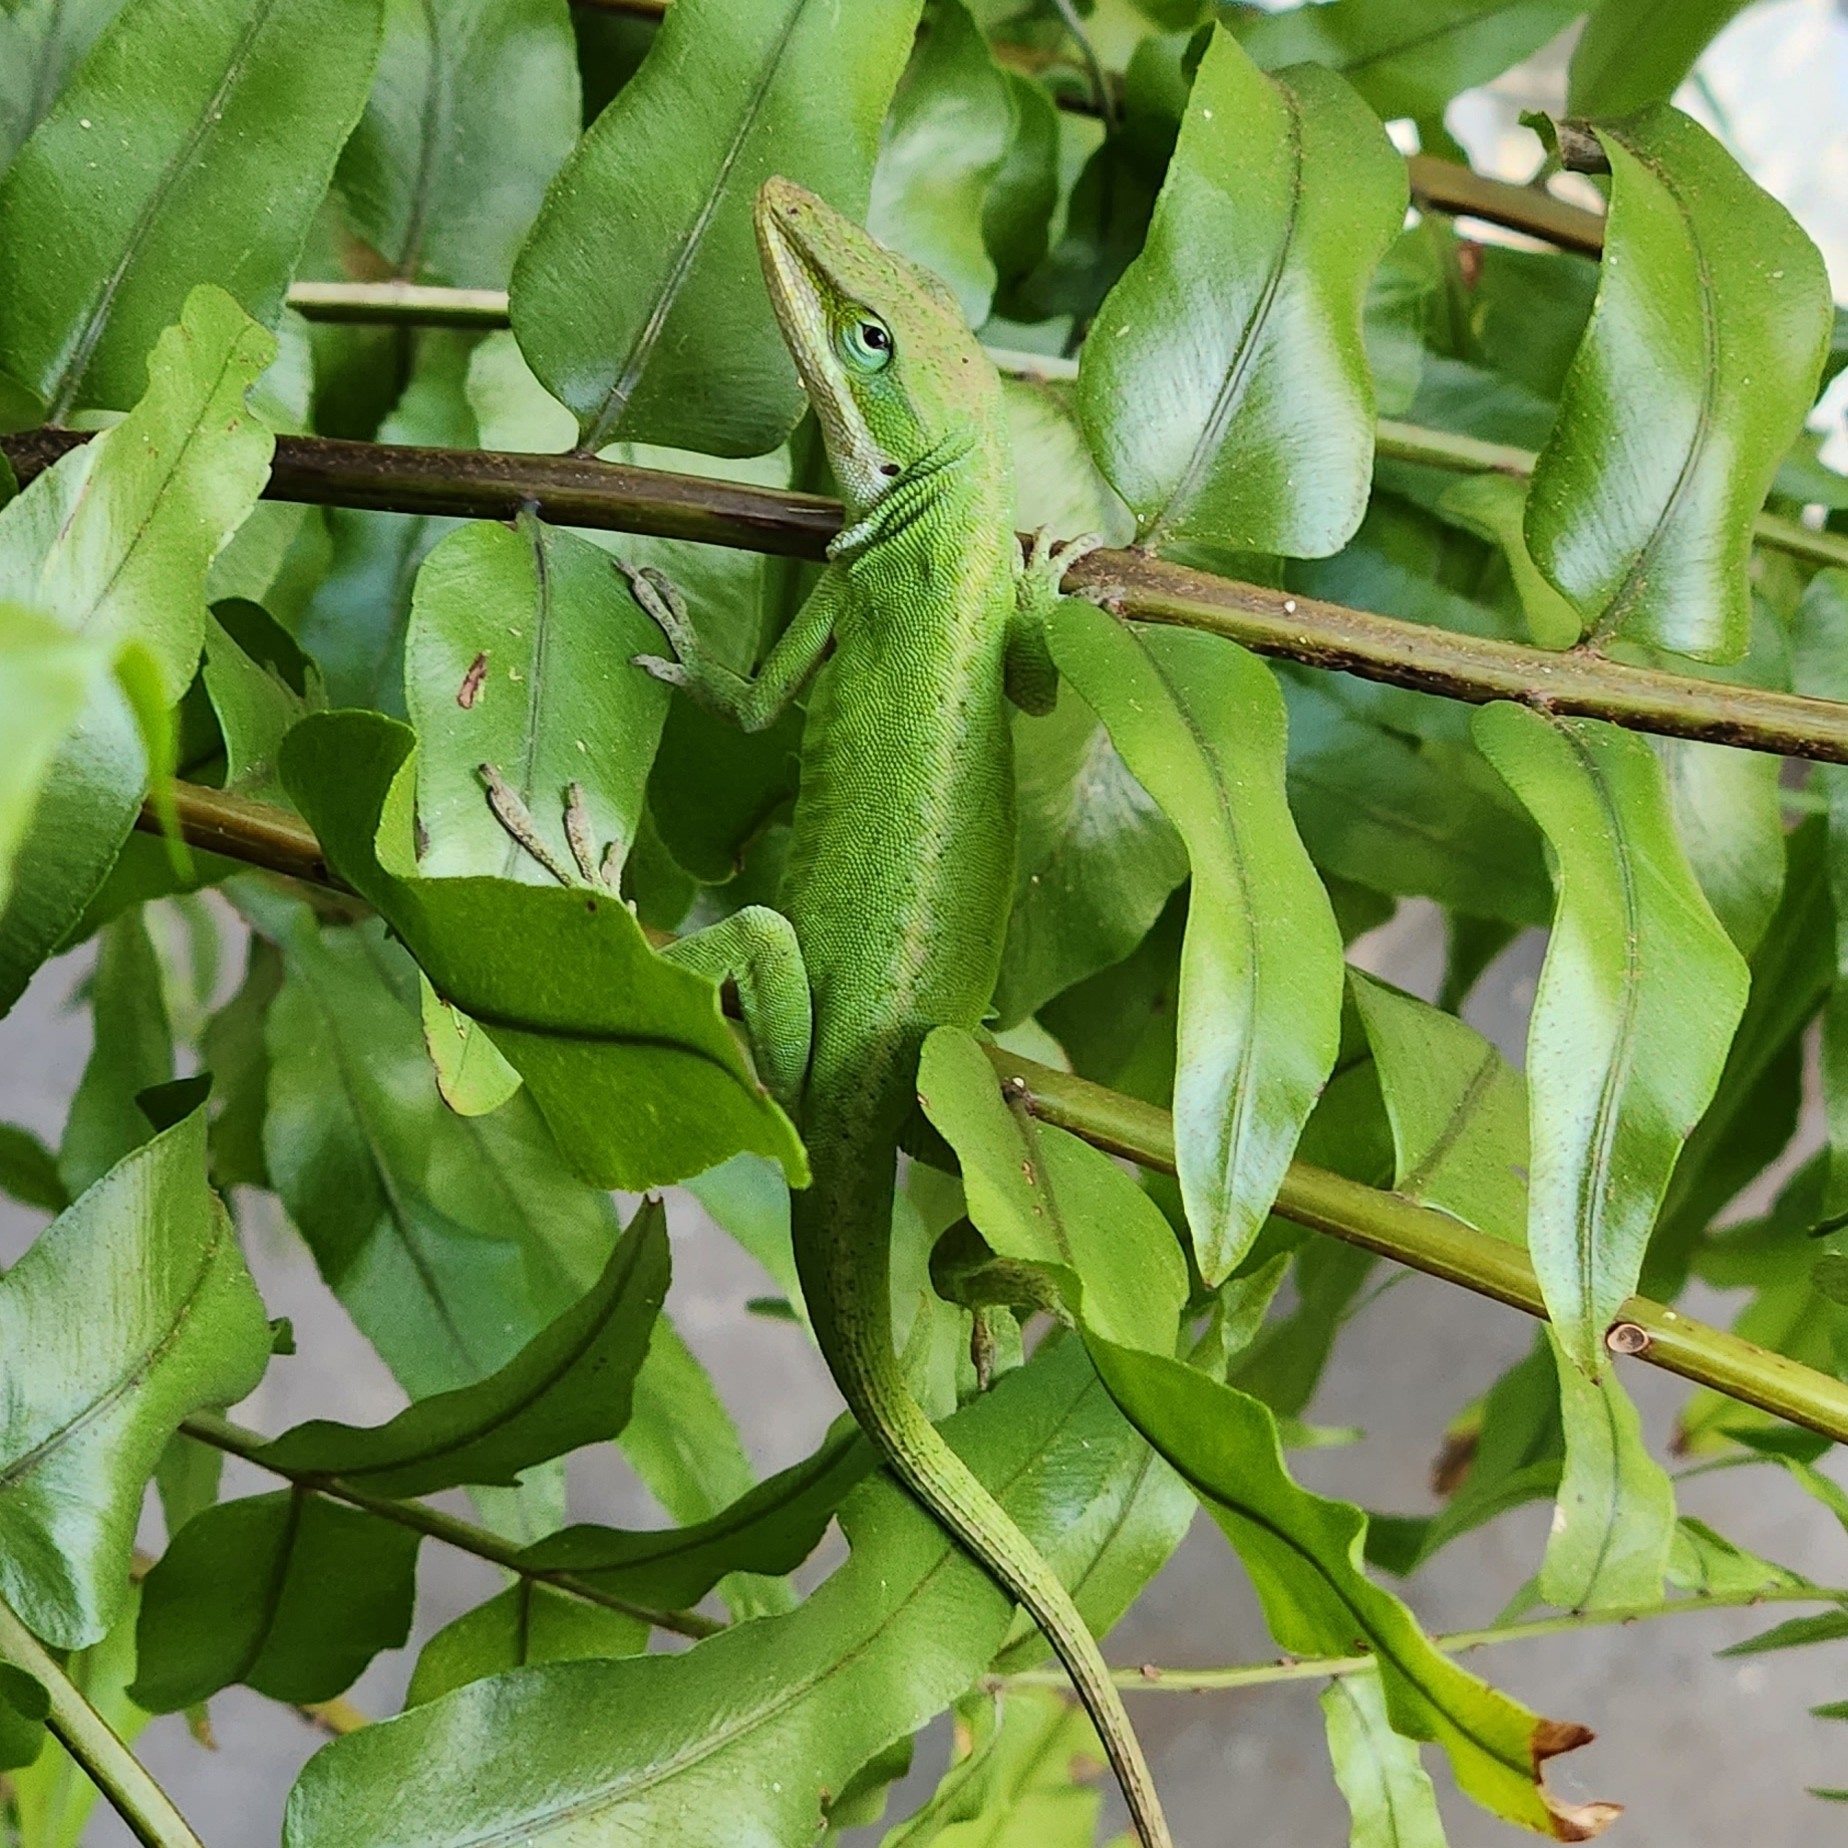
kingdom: Animalia
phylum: Chordata
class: Squamata
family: Dactyloidae
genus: Anolis
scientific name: Anolis carolinensis
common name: Green anole
